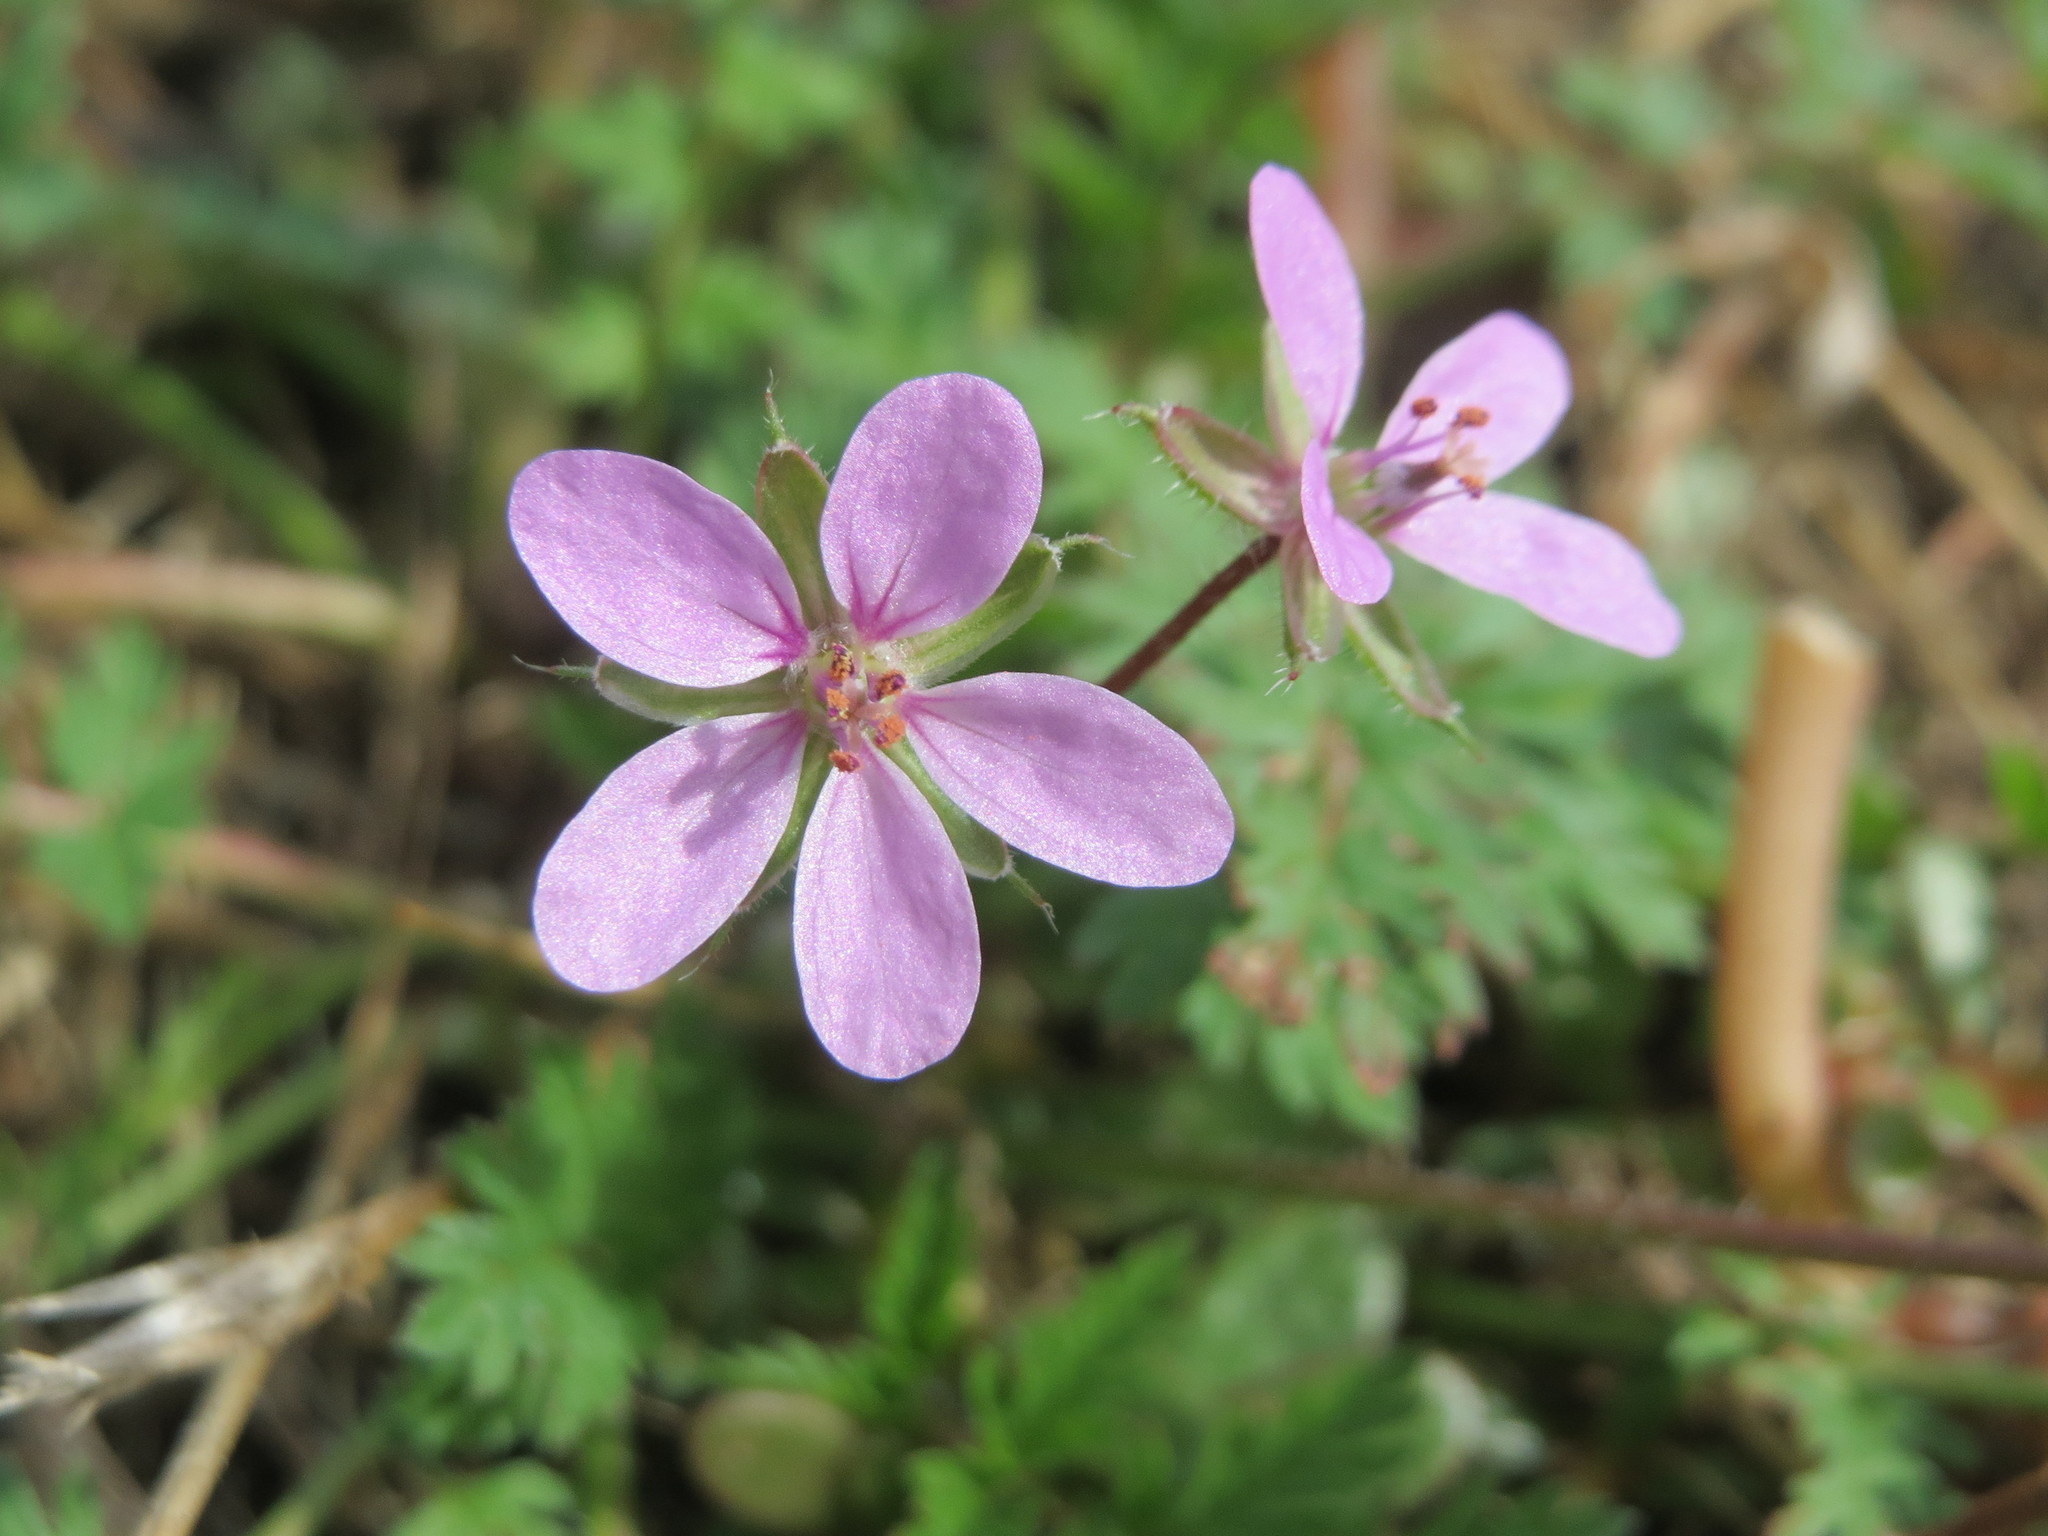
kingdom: Plantae
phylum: Tracheophyta
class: Magnoliopsida
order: Geraniales
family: Geraniaceae
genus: Erodium
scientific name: Erodium cicutarium
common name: Common stork's-bill
